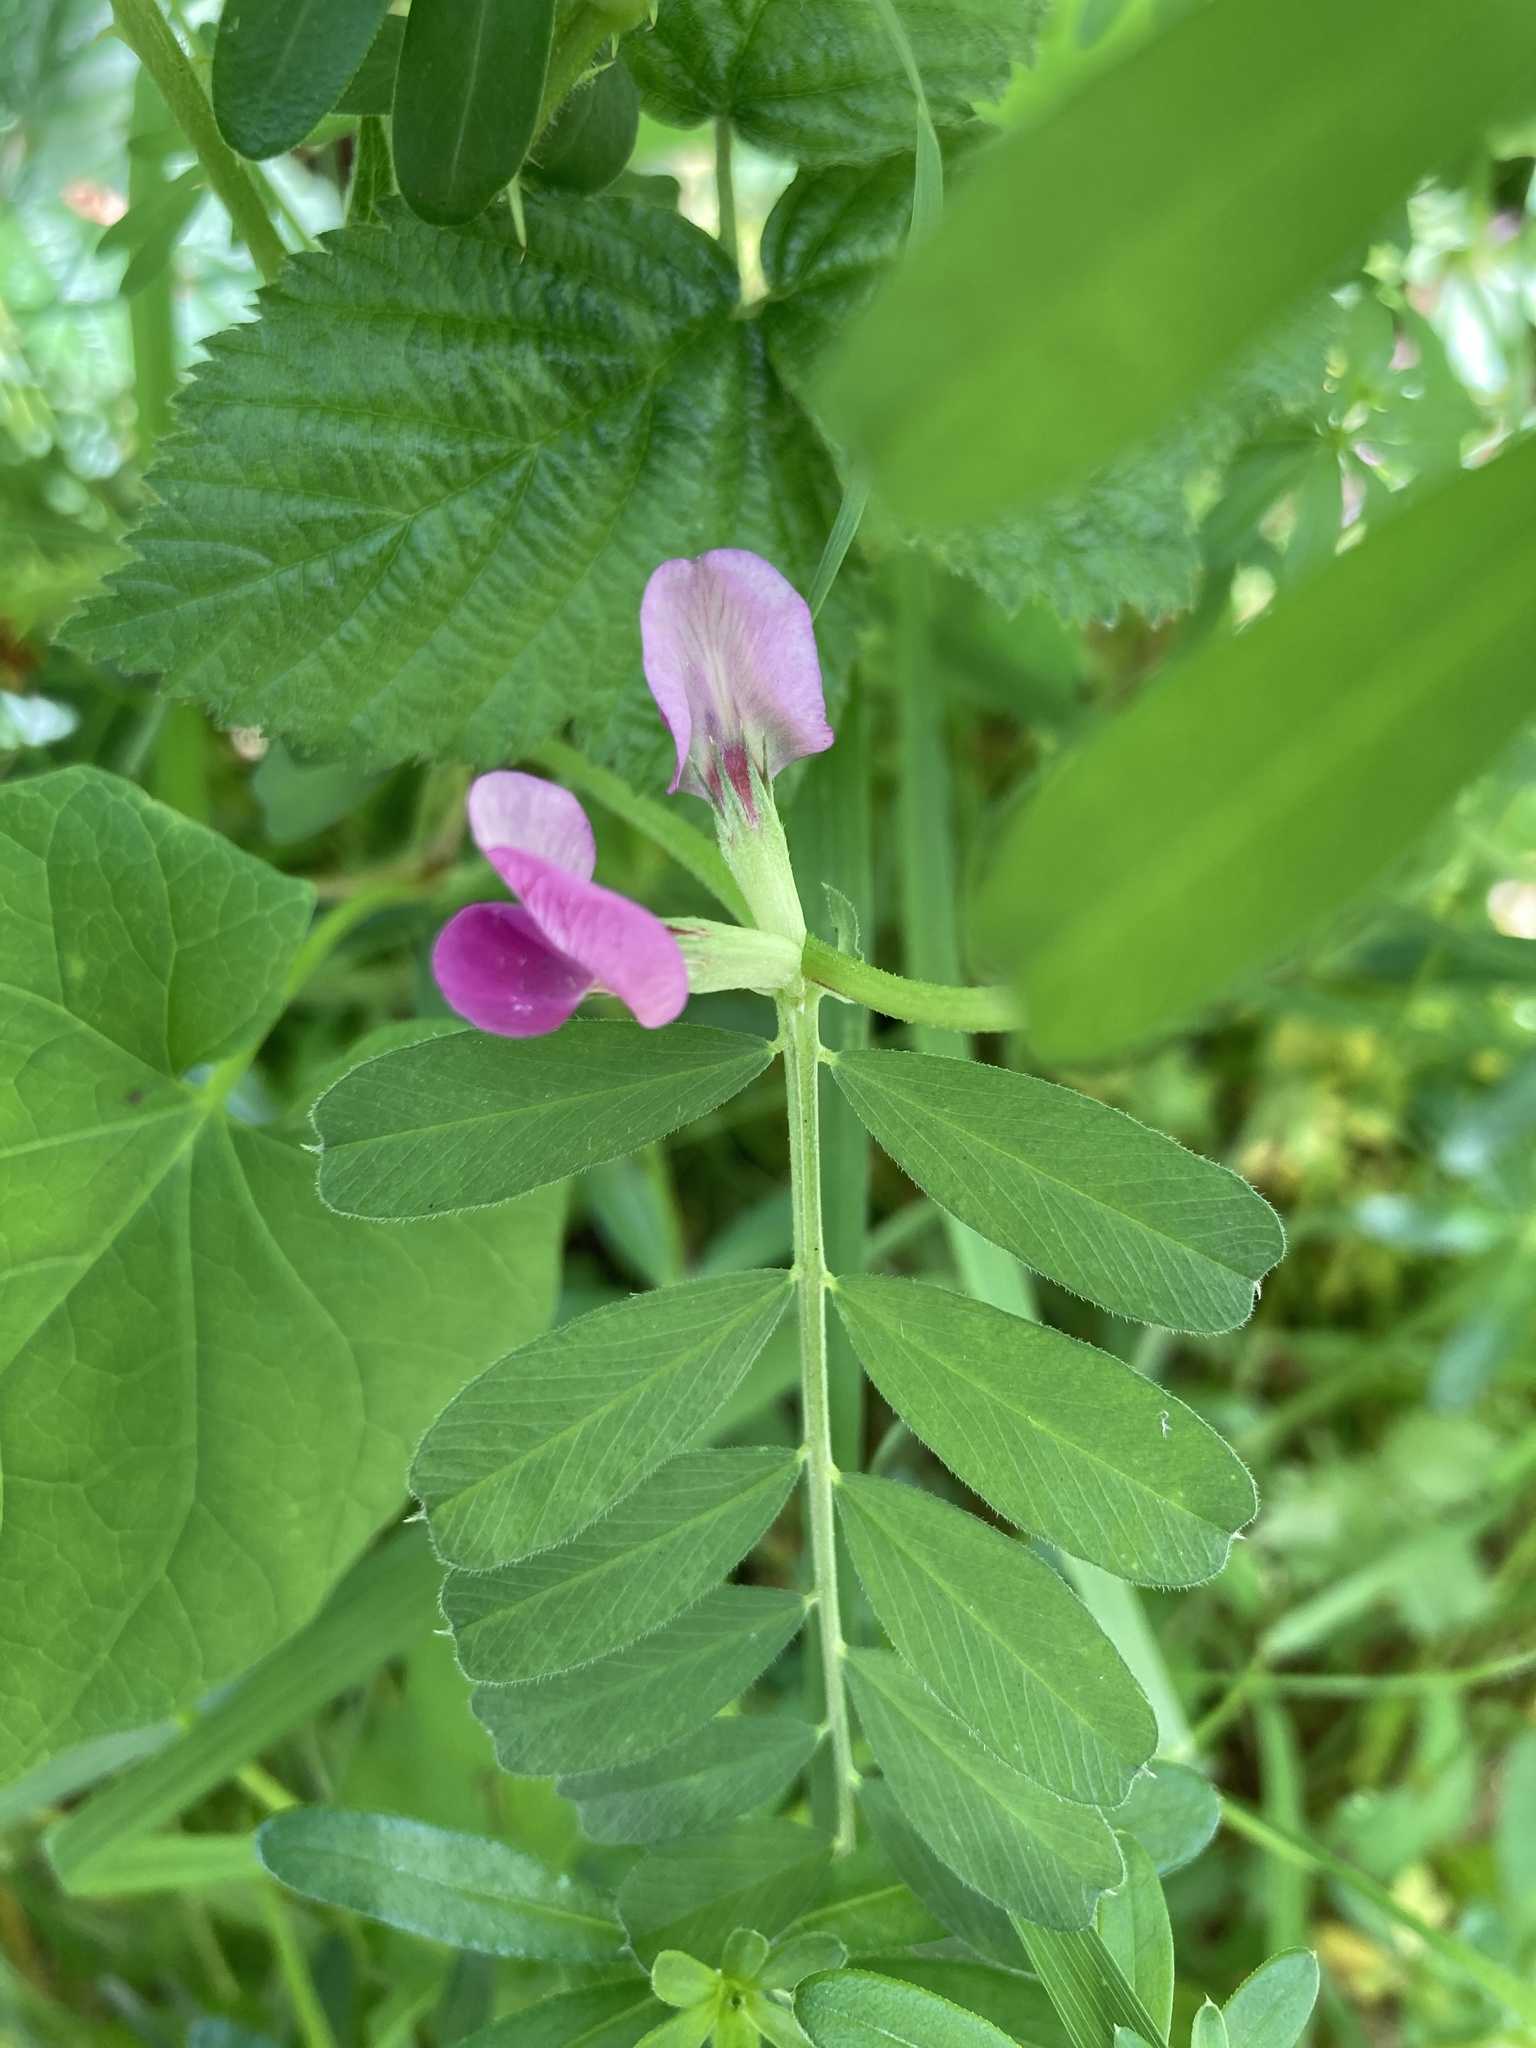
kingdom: Plantae
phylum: Tracheophyta
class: Magnoliopsida
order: Fabales
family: Fabaceae
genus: Vicia
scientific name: Vicia sativa
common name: Garden vetch
